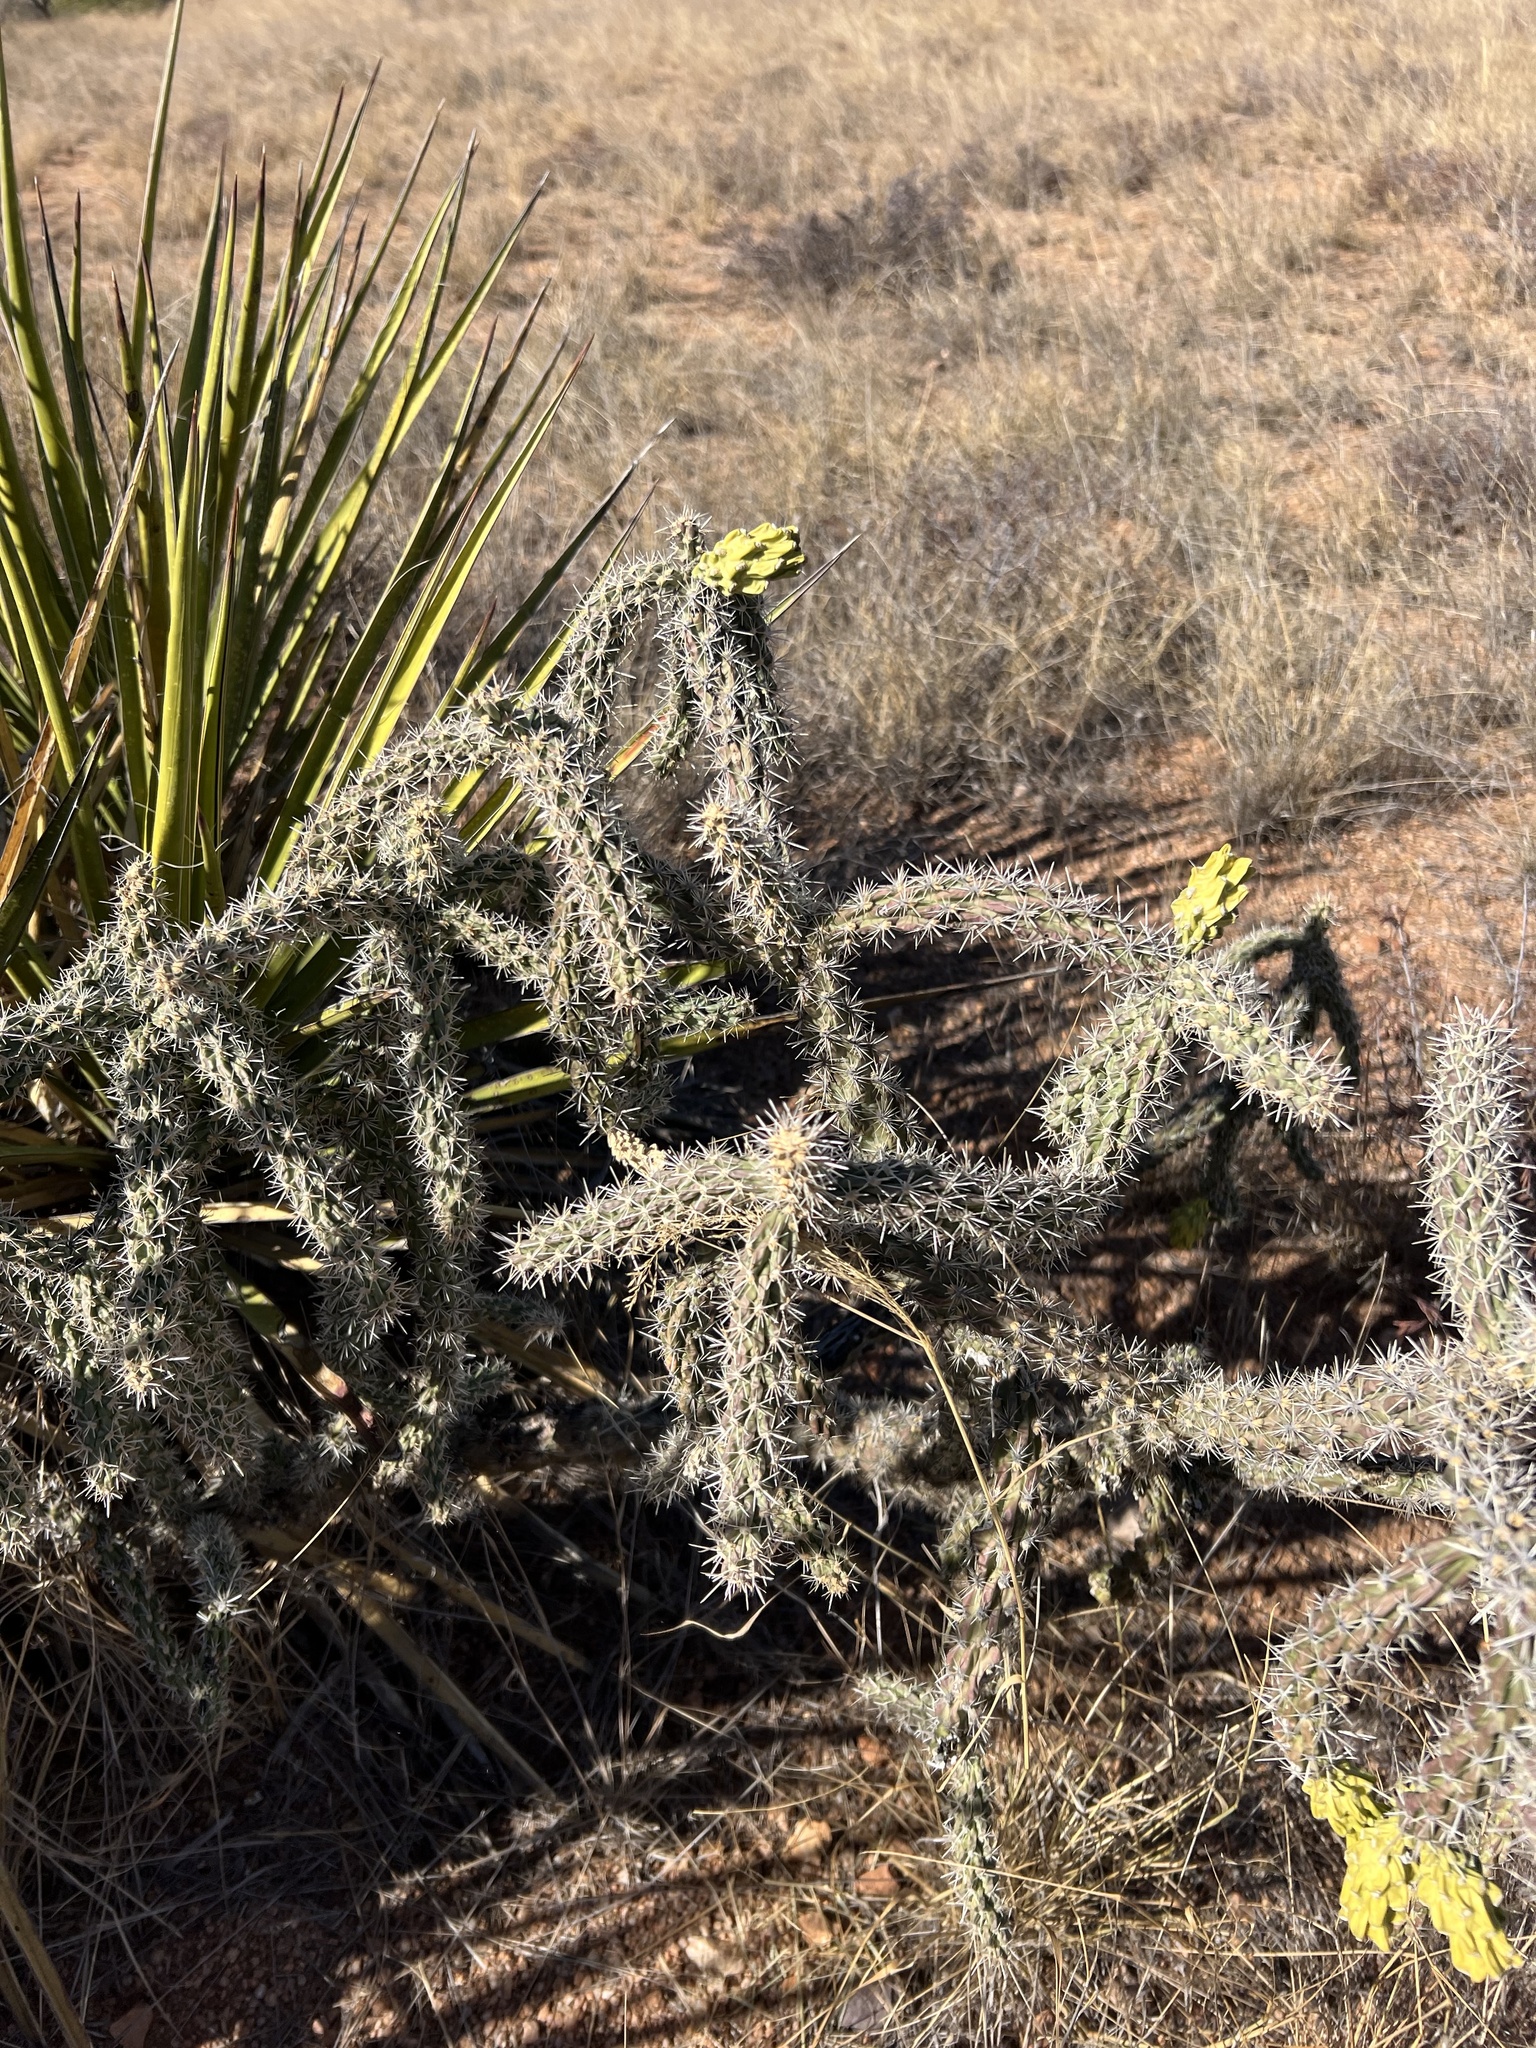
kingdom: Plantae
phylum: Tracheophyta
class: Magnoliopsida
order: Caryophyllales
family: Cactaceae
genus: Cylindropuntia
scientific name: Cylindropuntia imbricata
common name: Candelabrum cactus
